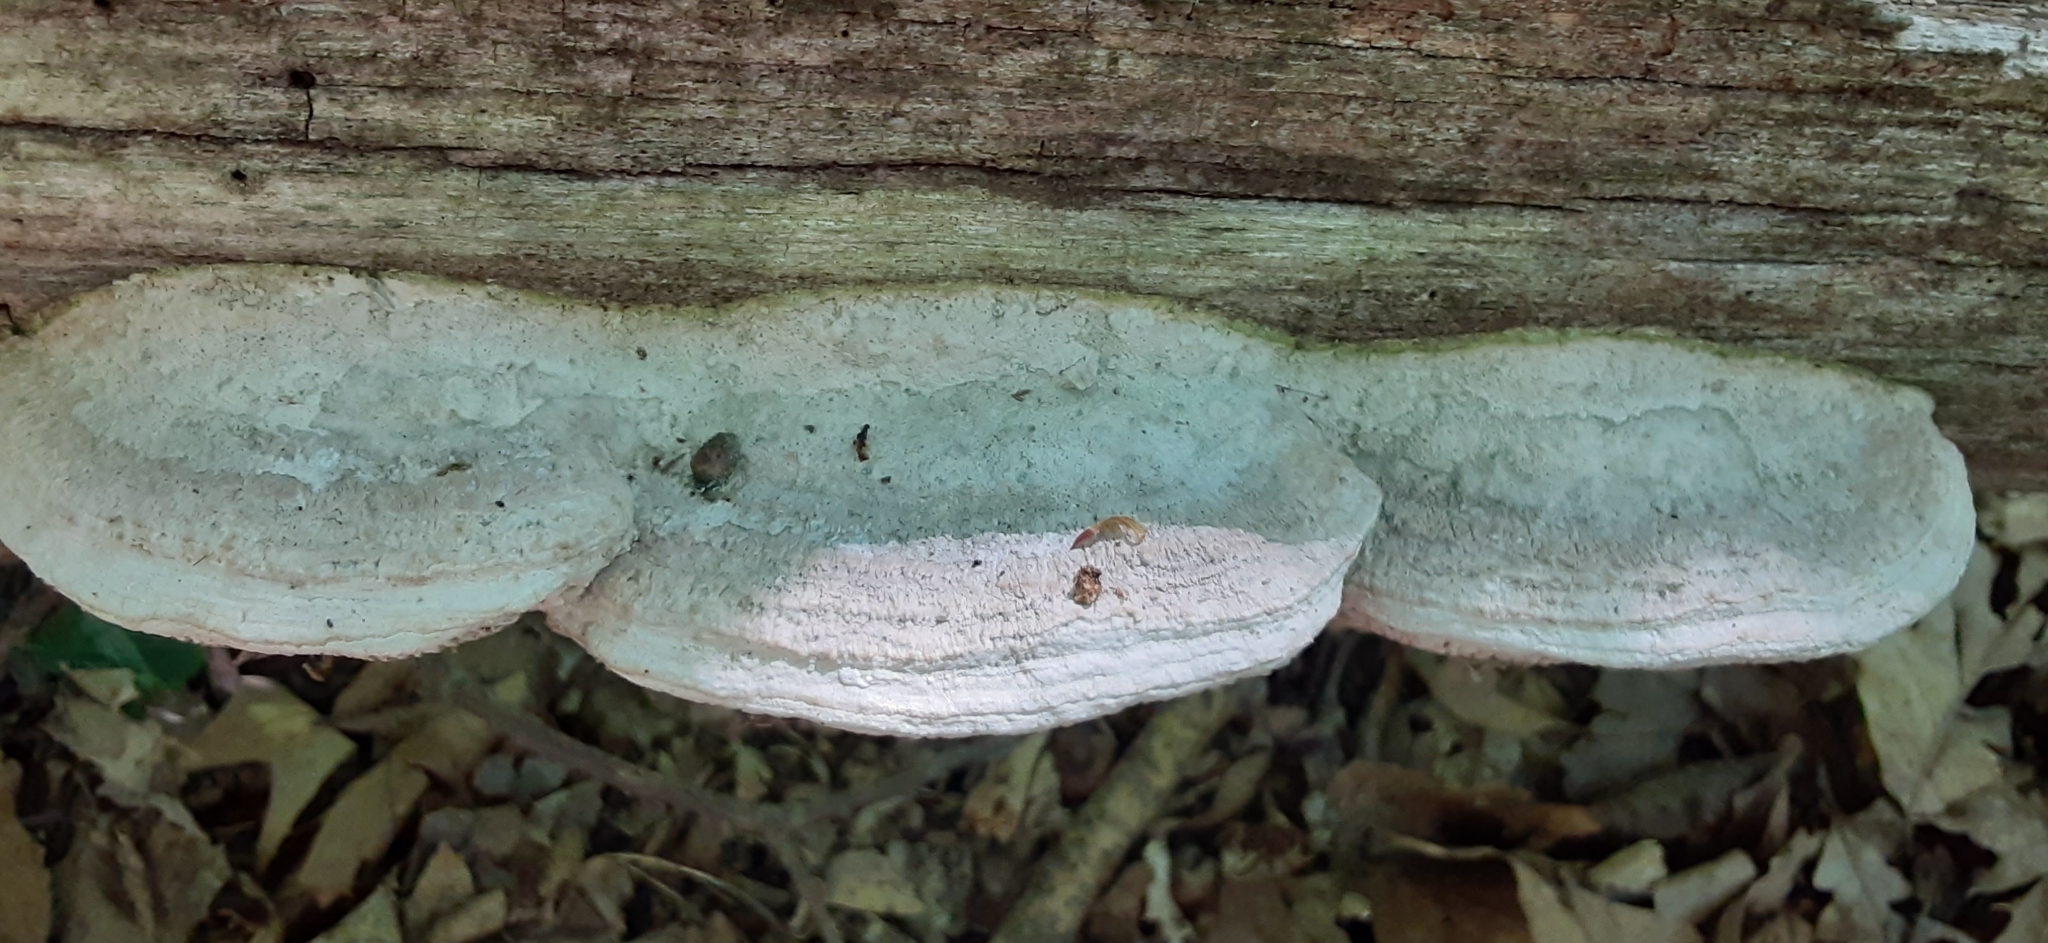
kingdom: Fungi
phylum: Basidiomycota
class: Agaricomycetes
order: Polyporales
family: Fomitopsidaceae
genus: Fomitopsis
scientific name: Fomitopsis
